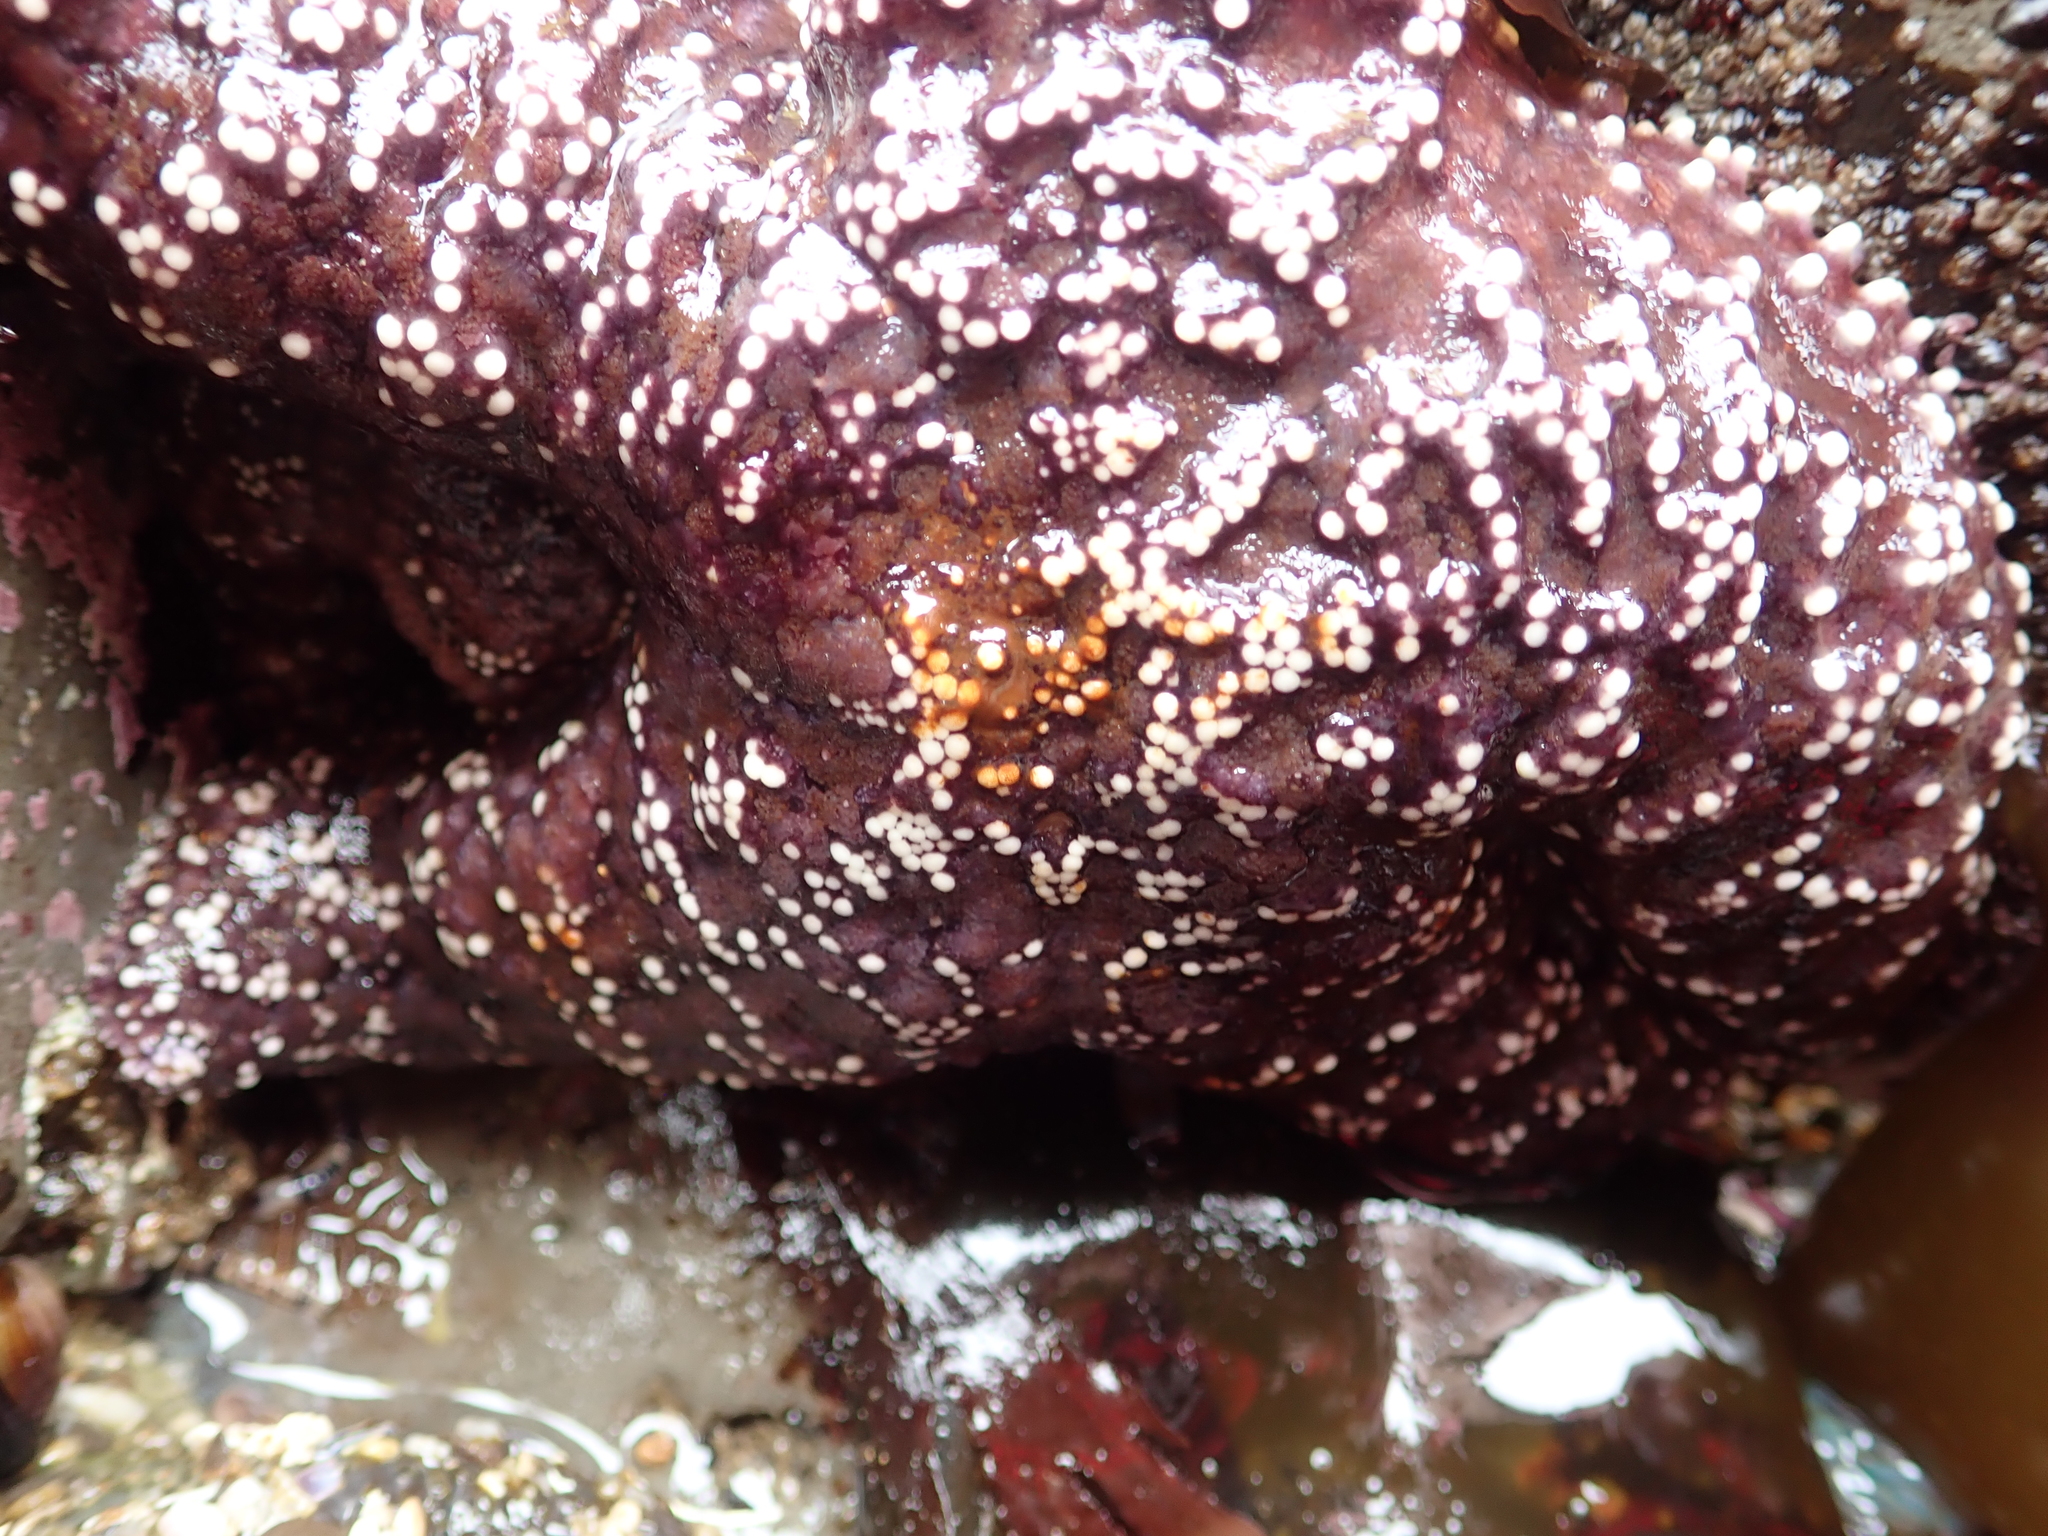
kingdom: Animalia
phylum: Echinodermata
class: Asteroidea
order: Forcipulatida
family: Asteriidae
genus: Pisaster
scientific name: Pisaster ochraceus
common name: Ochre stars
